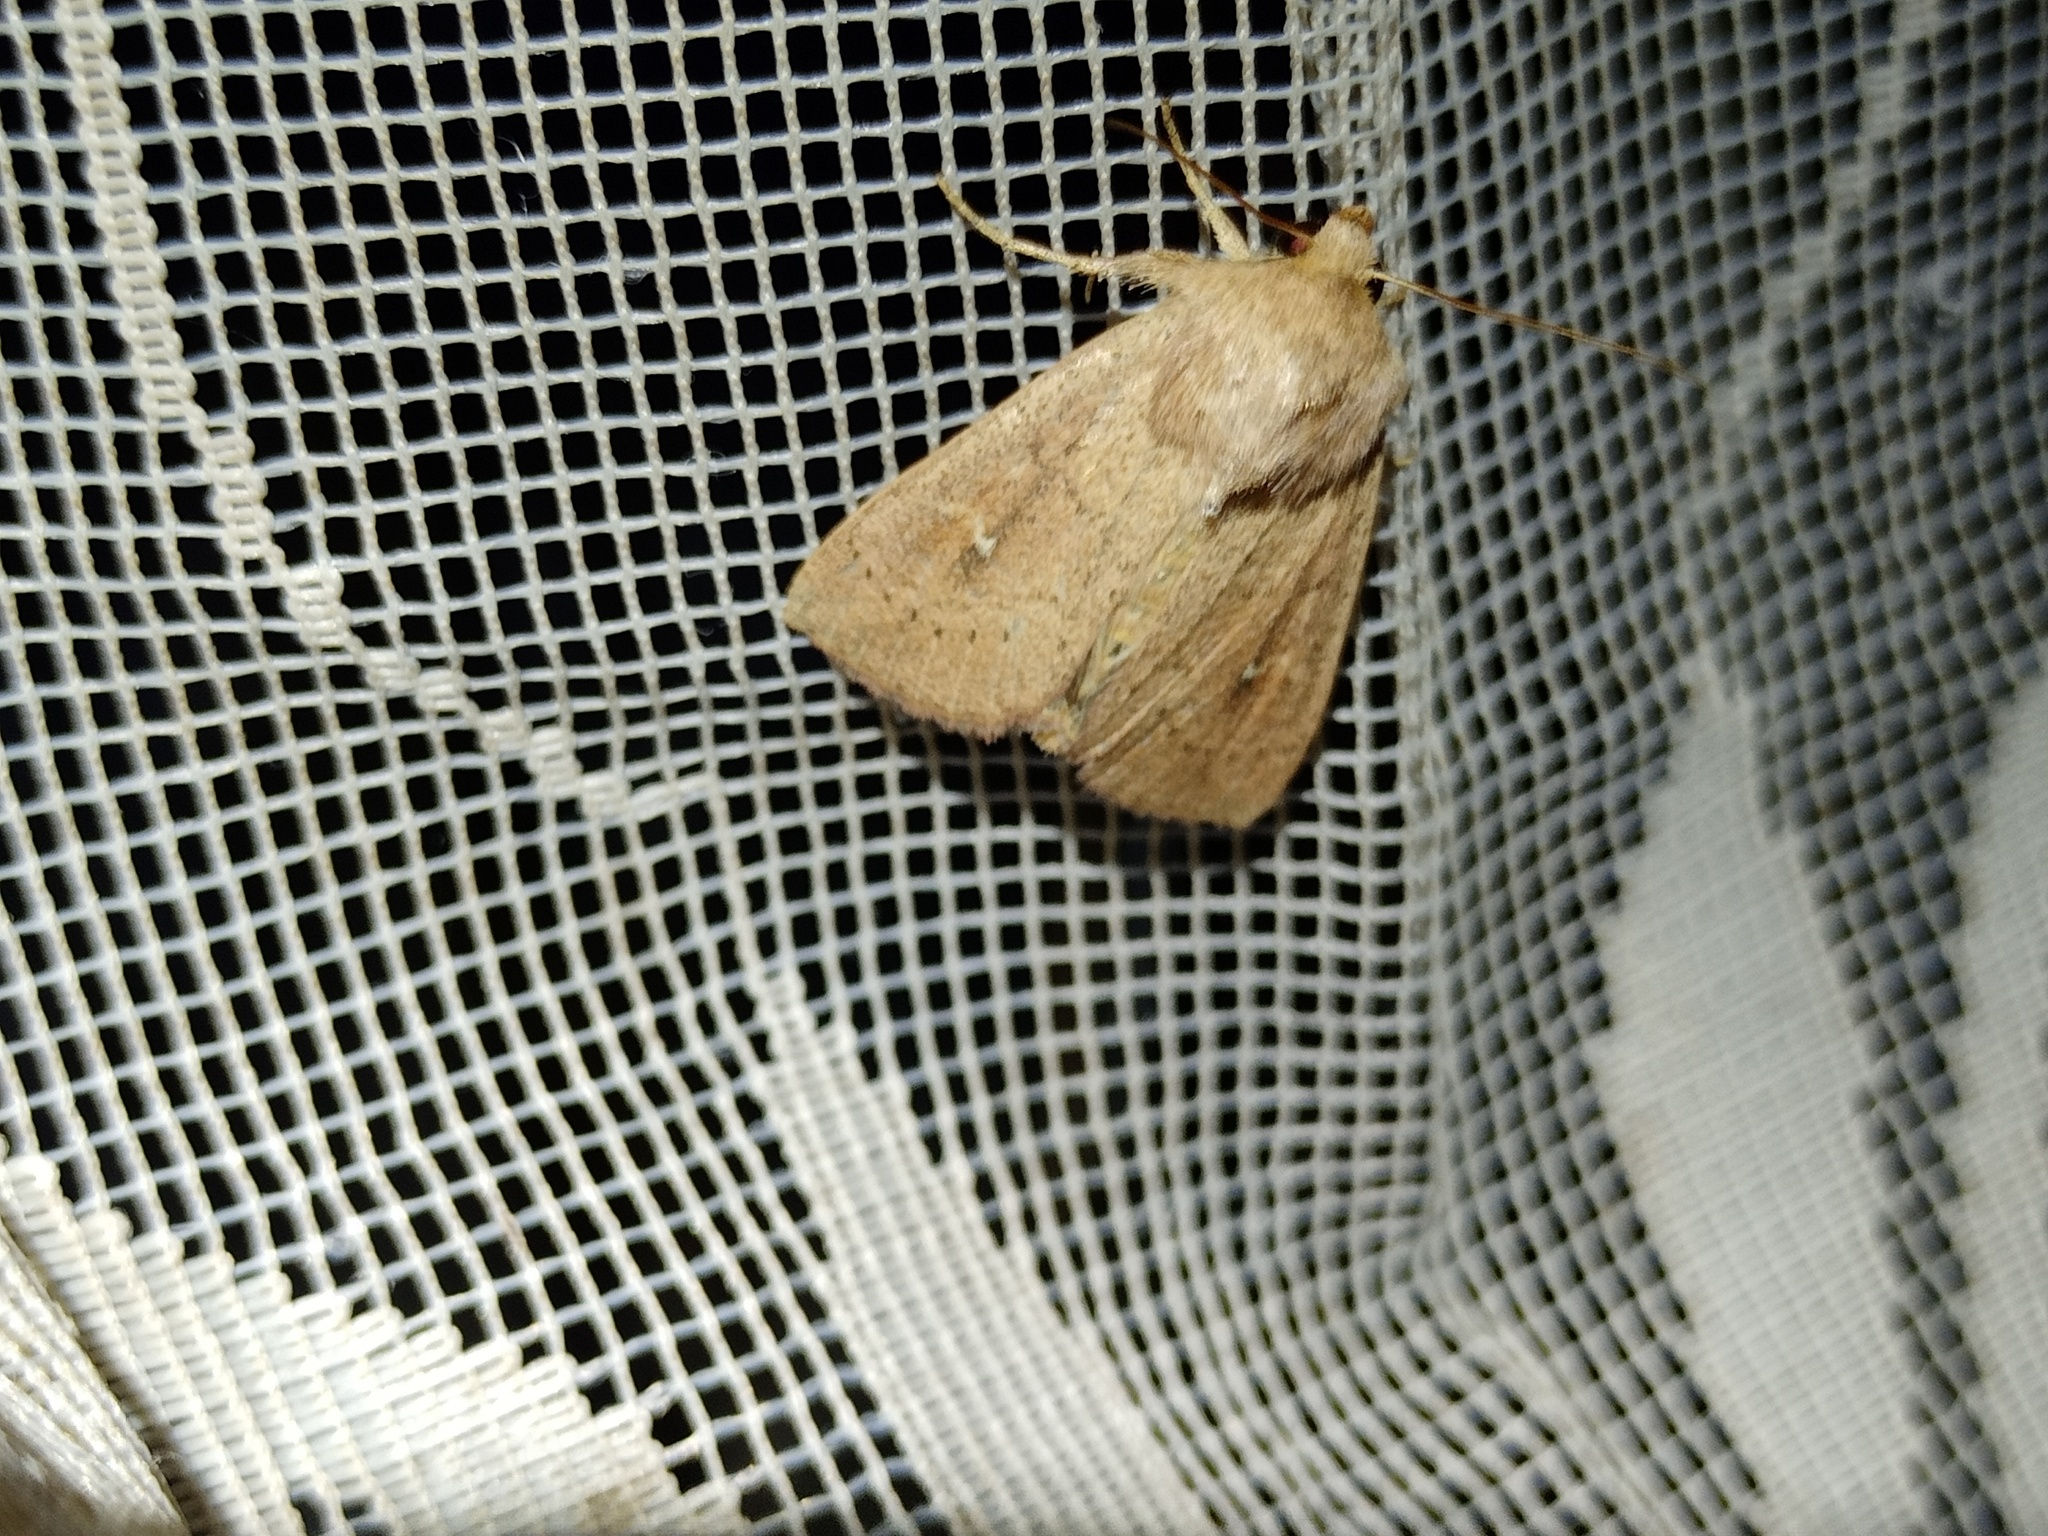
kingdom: Animalia
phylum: Arthropoda
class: Insecta
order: Lepidoptera
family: Noctuidae
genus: Mythimna
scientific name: Mythimna ferrago
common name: Clay
